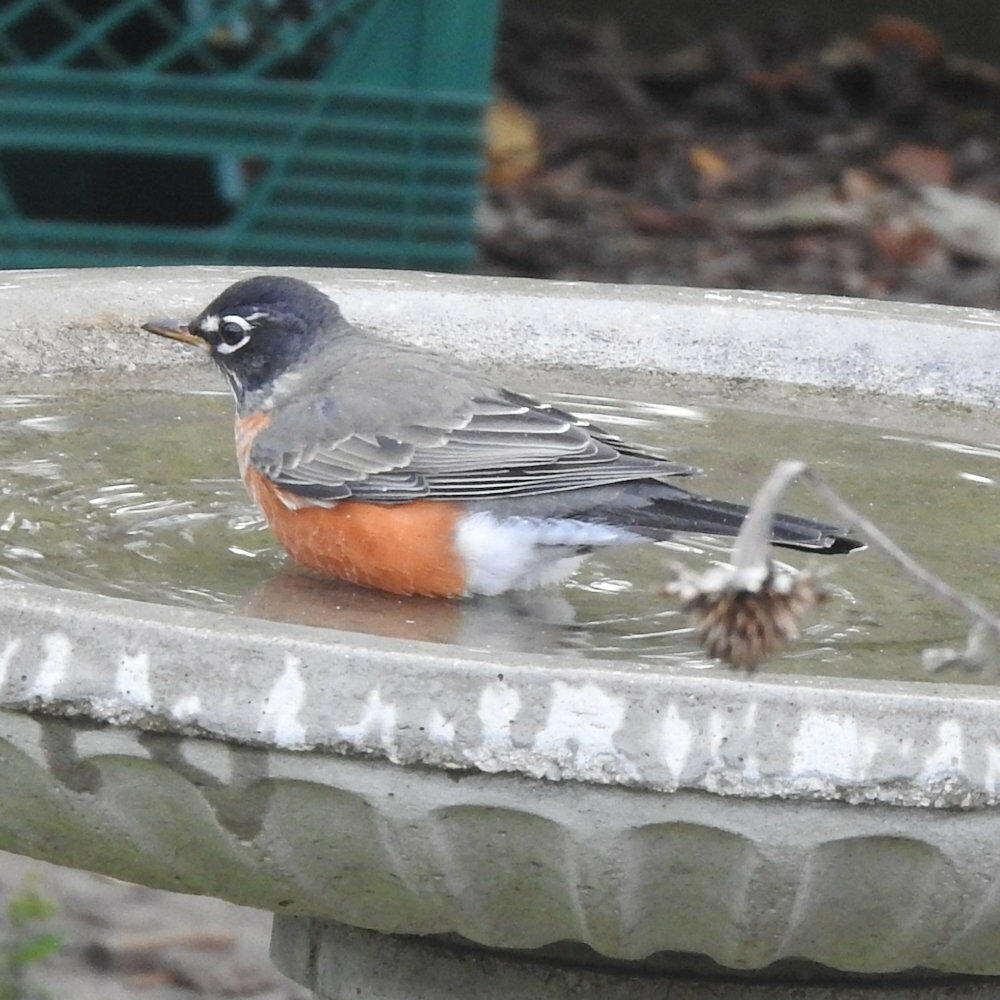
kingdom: Animalia
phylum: Chordata
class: Aves
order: Passeriformes
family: Turdidae
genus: Turdus
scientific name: Turdus migratorius
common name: American robin
